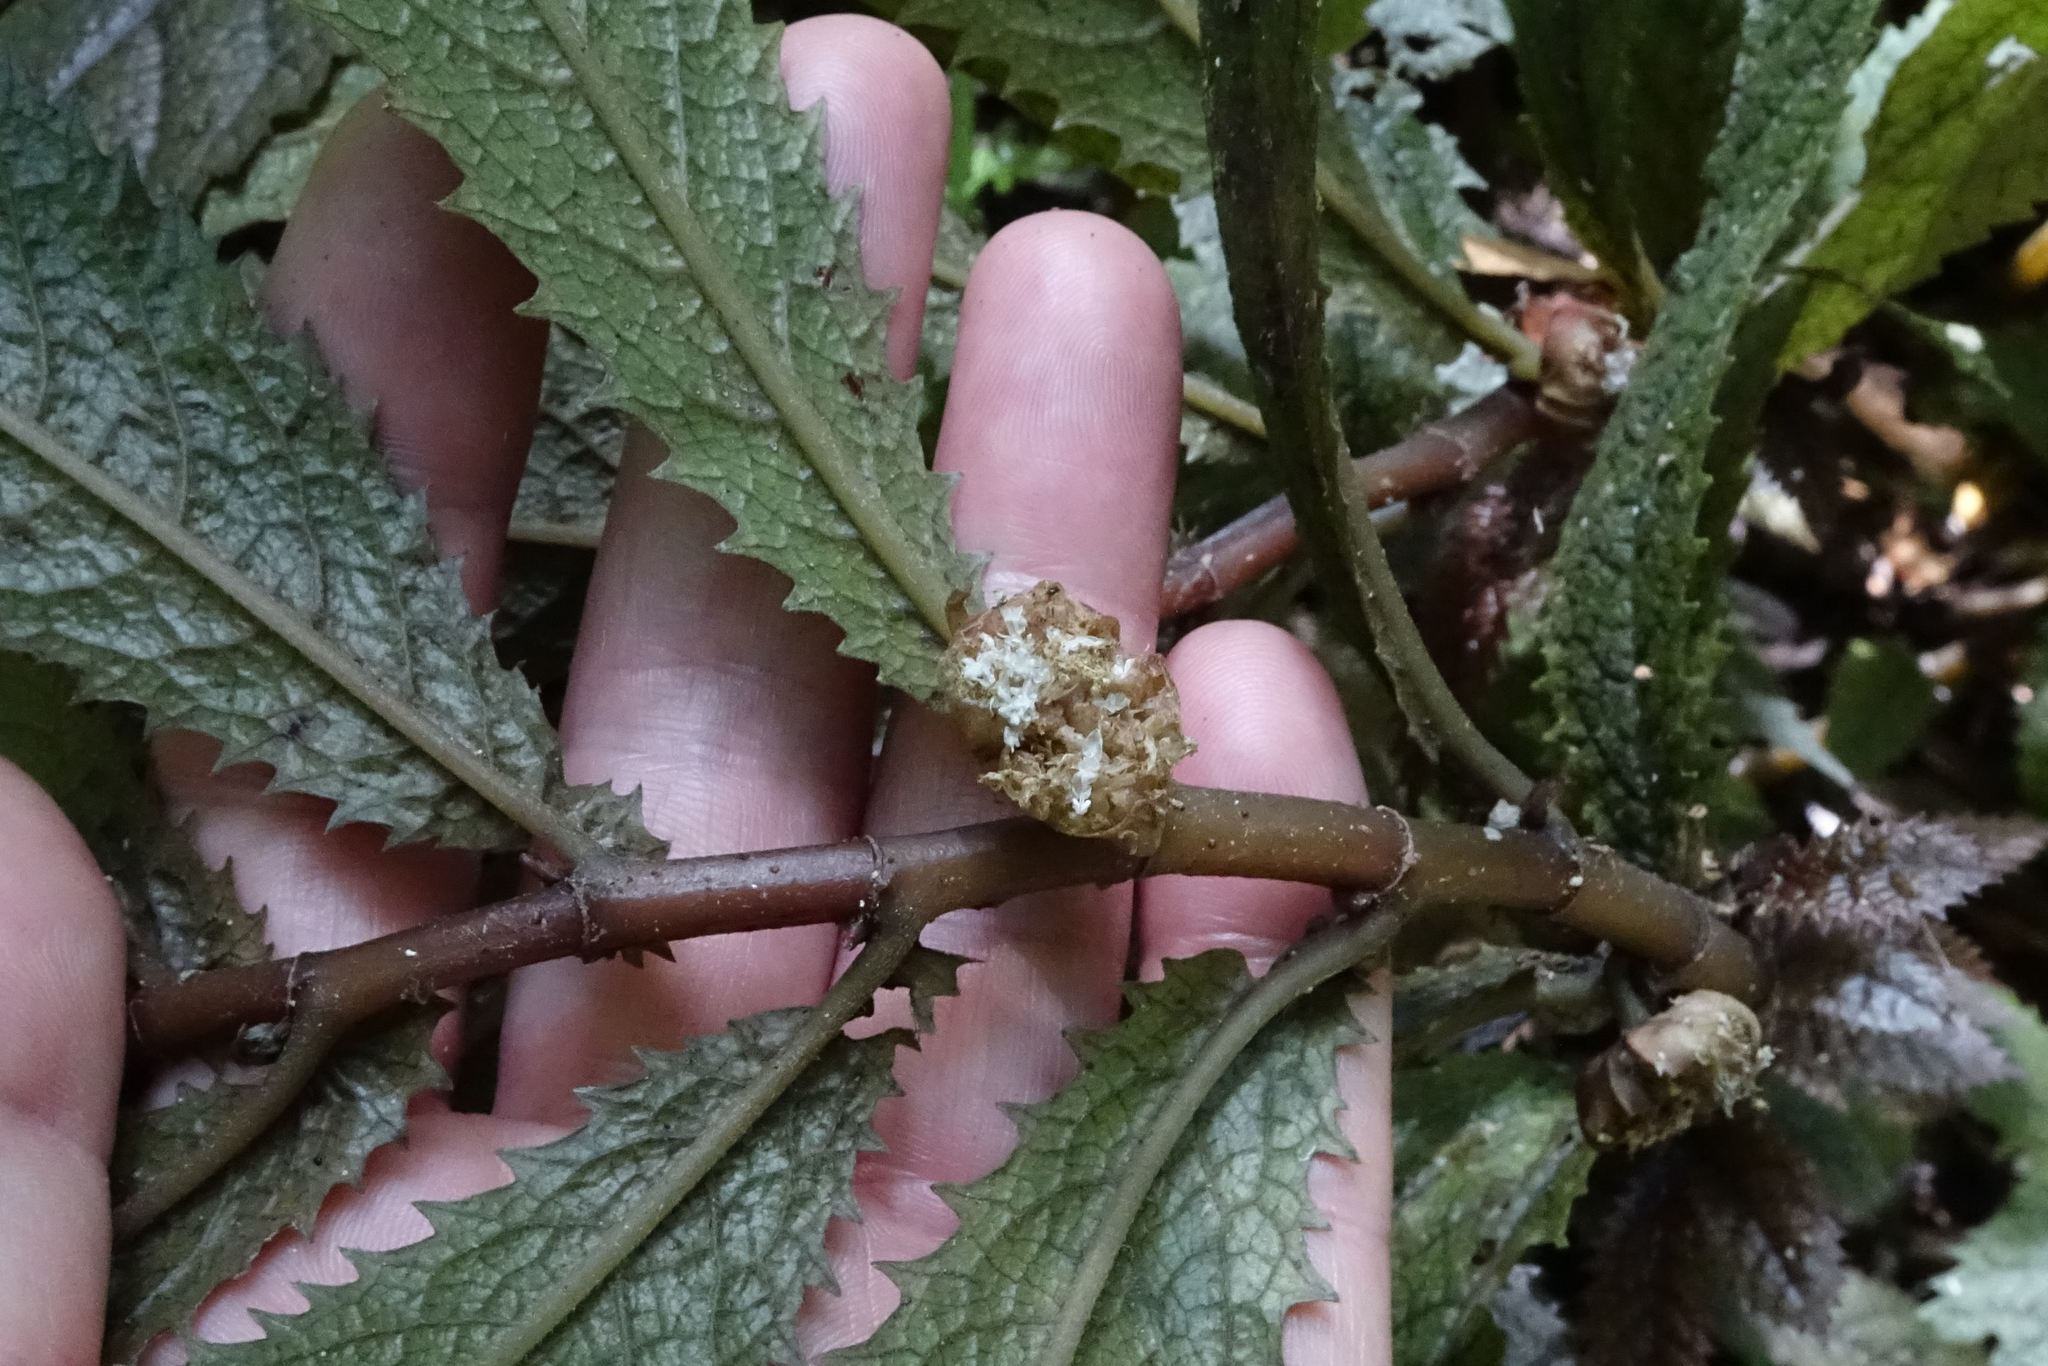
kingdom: Plantae
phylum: Tracheophyta
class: Magnoliopsida
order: Rosales
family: Urticaceae
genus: Elatostema
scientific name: Elatostema rugosum
